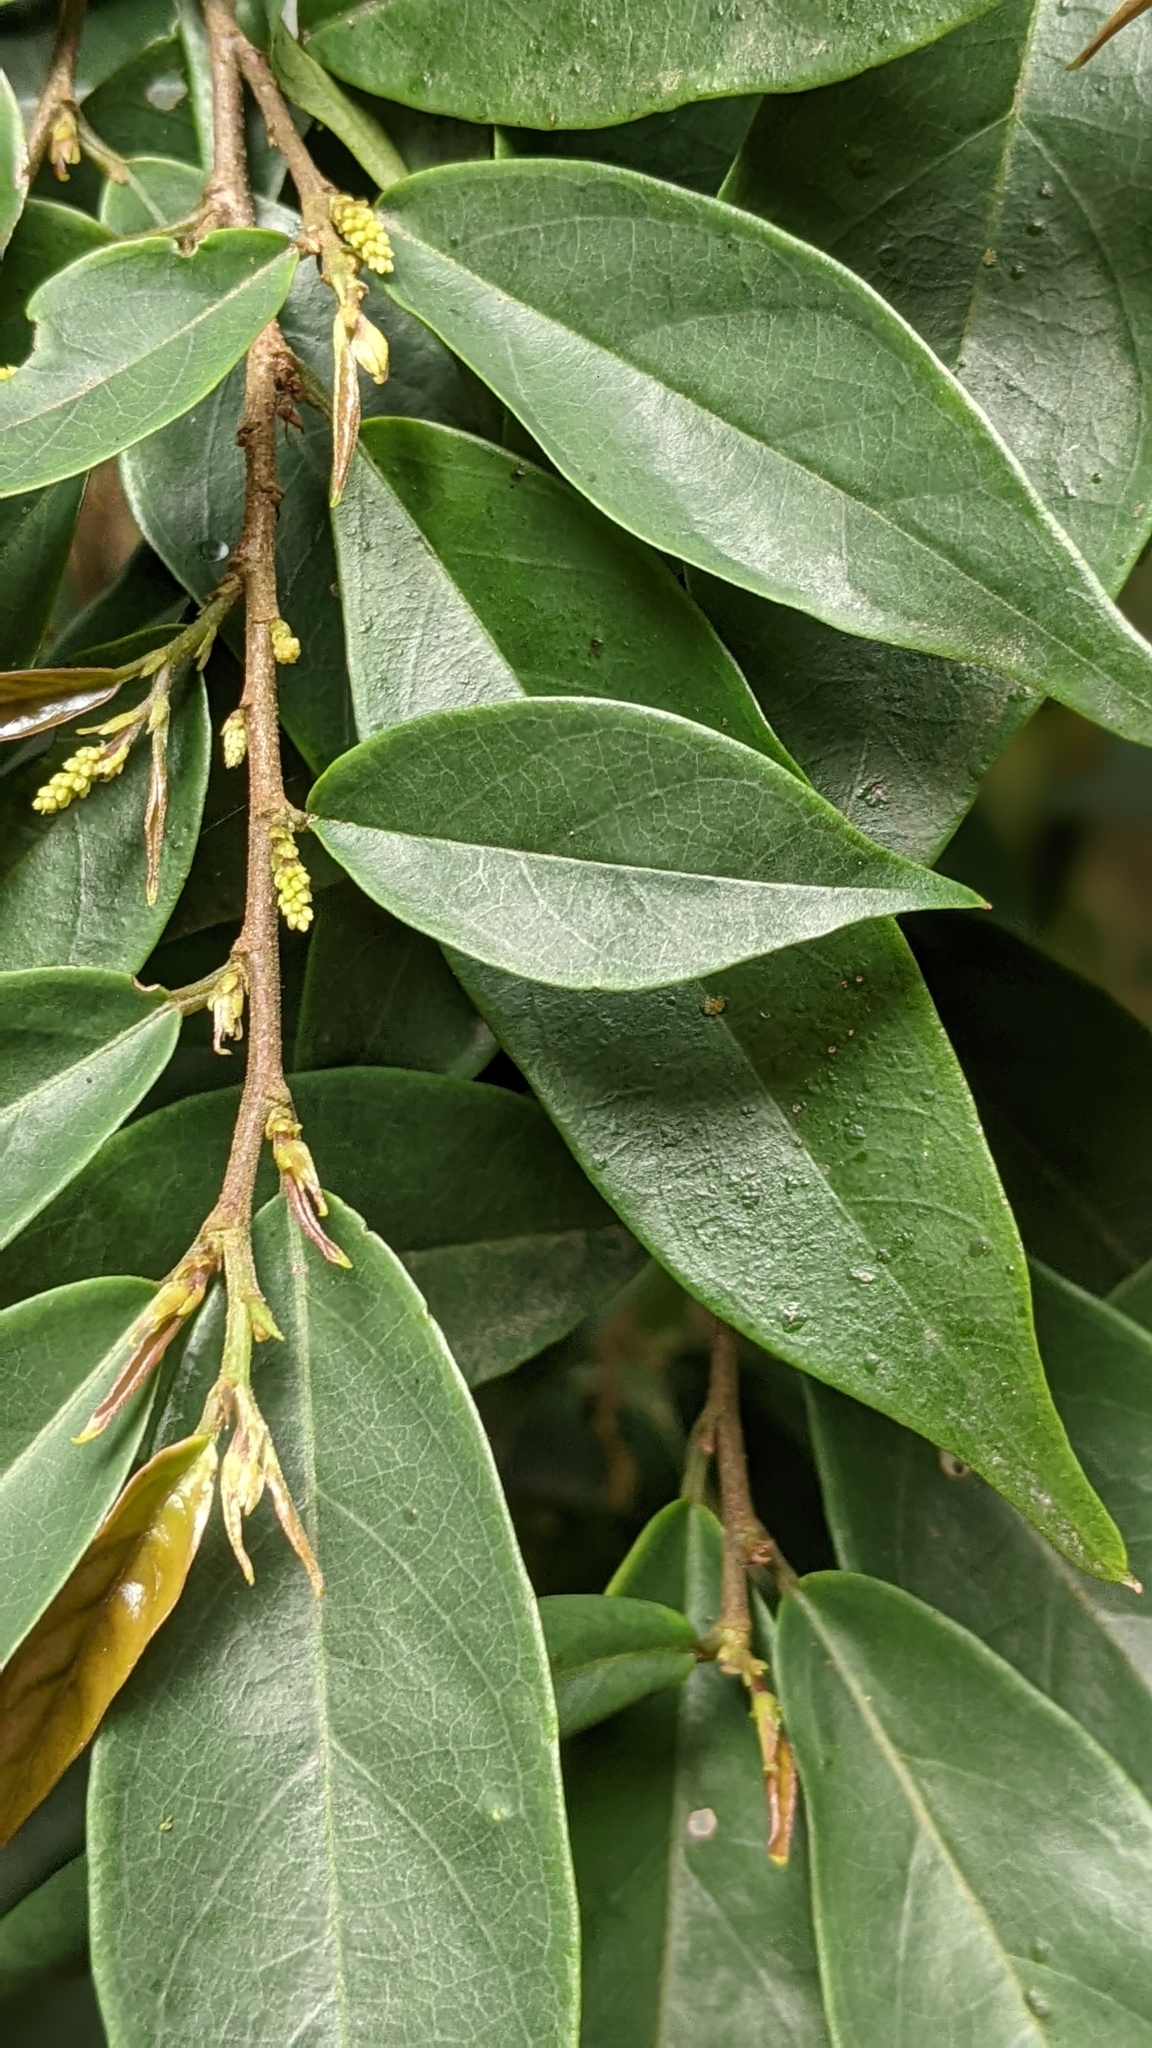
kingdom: Plantae
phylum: Tracheophyta
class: Magnoliopsida
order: Malpighiales
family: Phyllanthaceae
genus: Antidesma
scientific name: Antidesma japonicum
